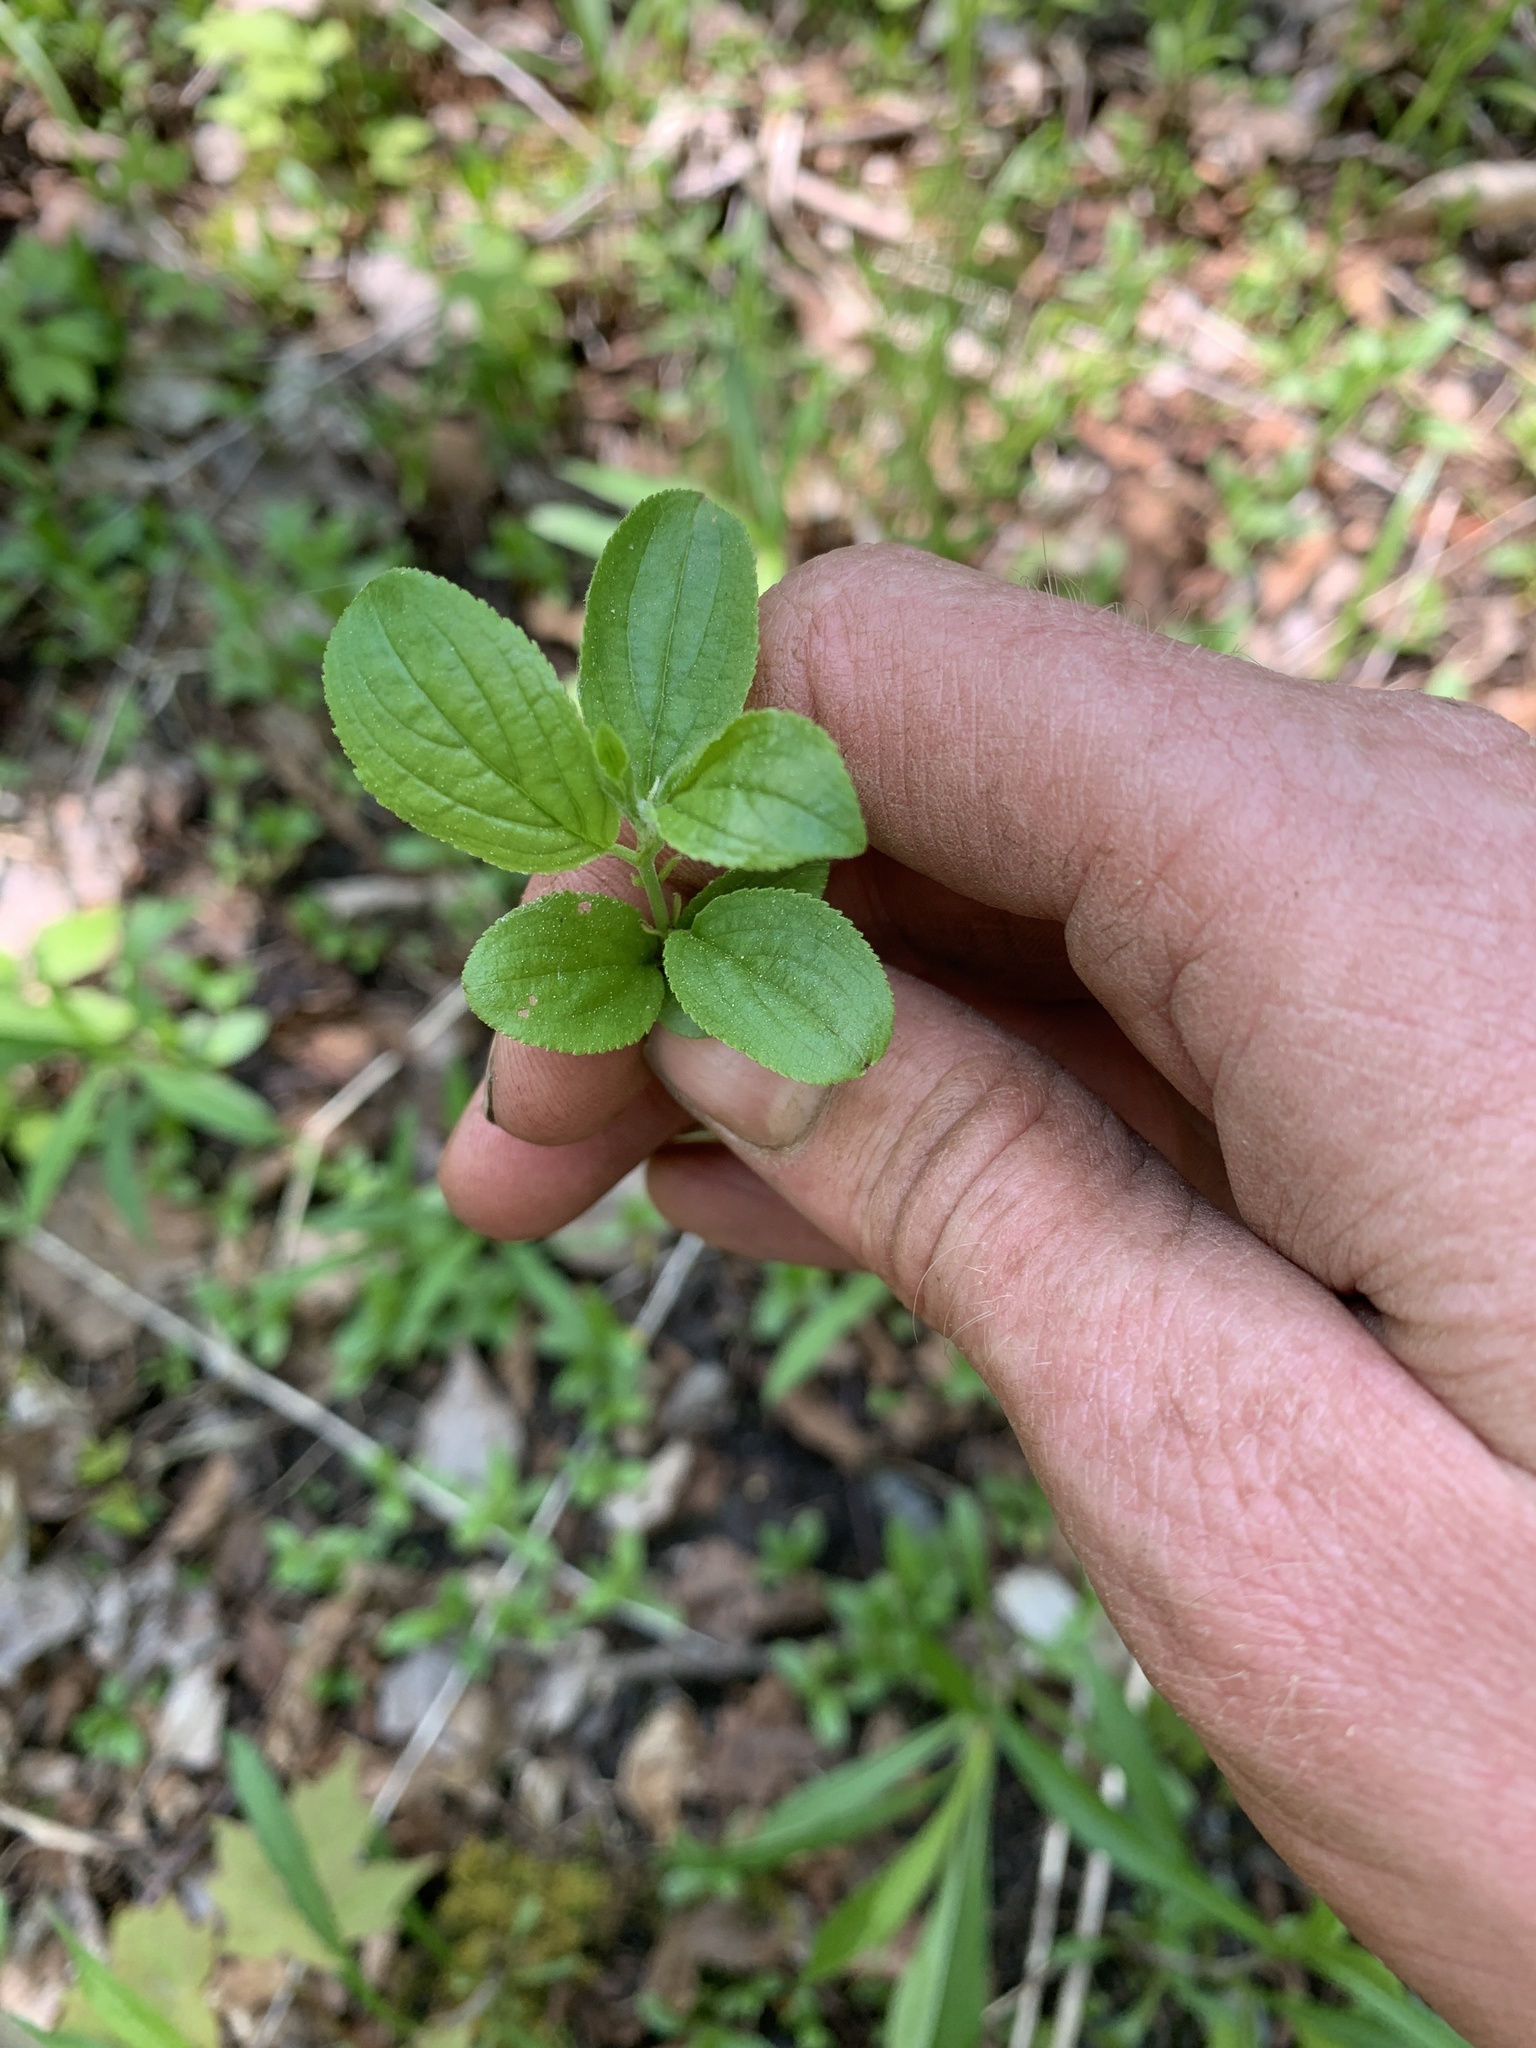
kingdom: Plantae
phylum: Tracheophyta
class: Magnoliopsida
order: Rosales
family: Rhamnaceae
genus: Rhamnus
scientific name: Rhamnus cathartica
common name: Common buckthorn
